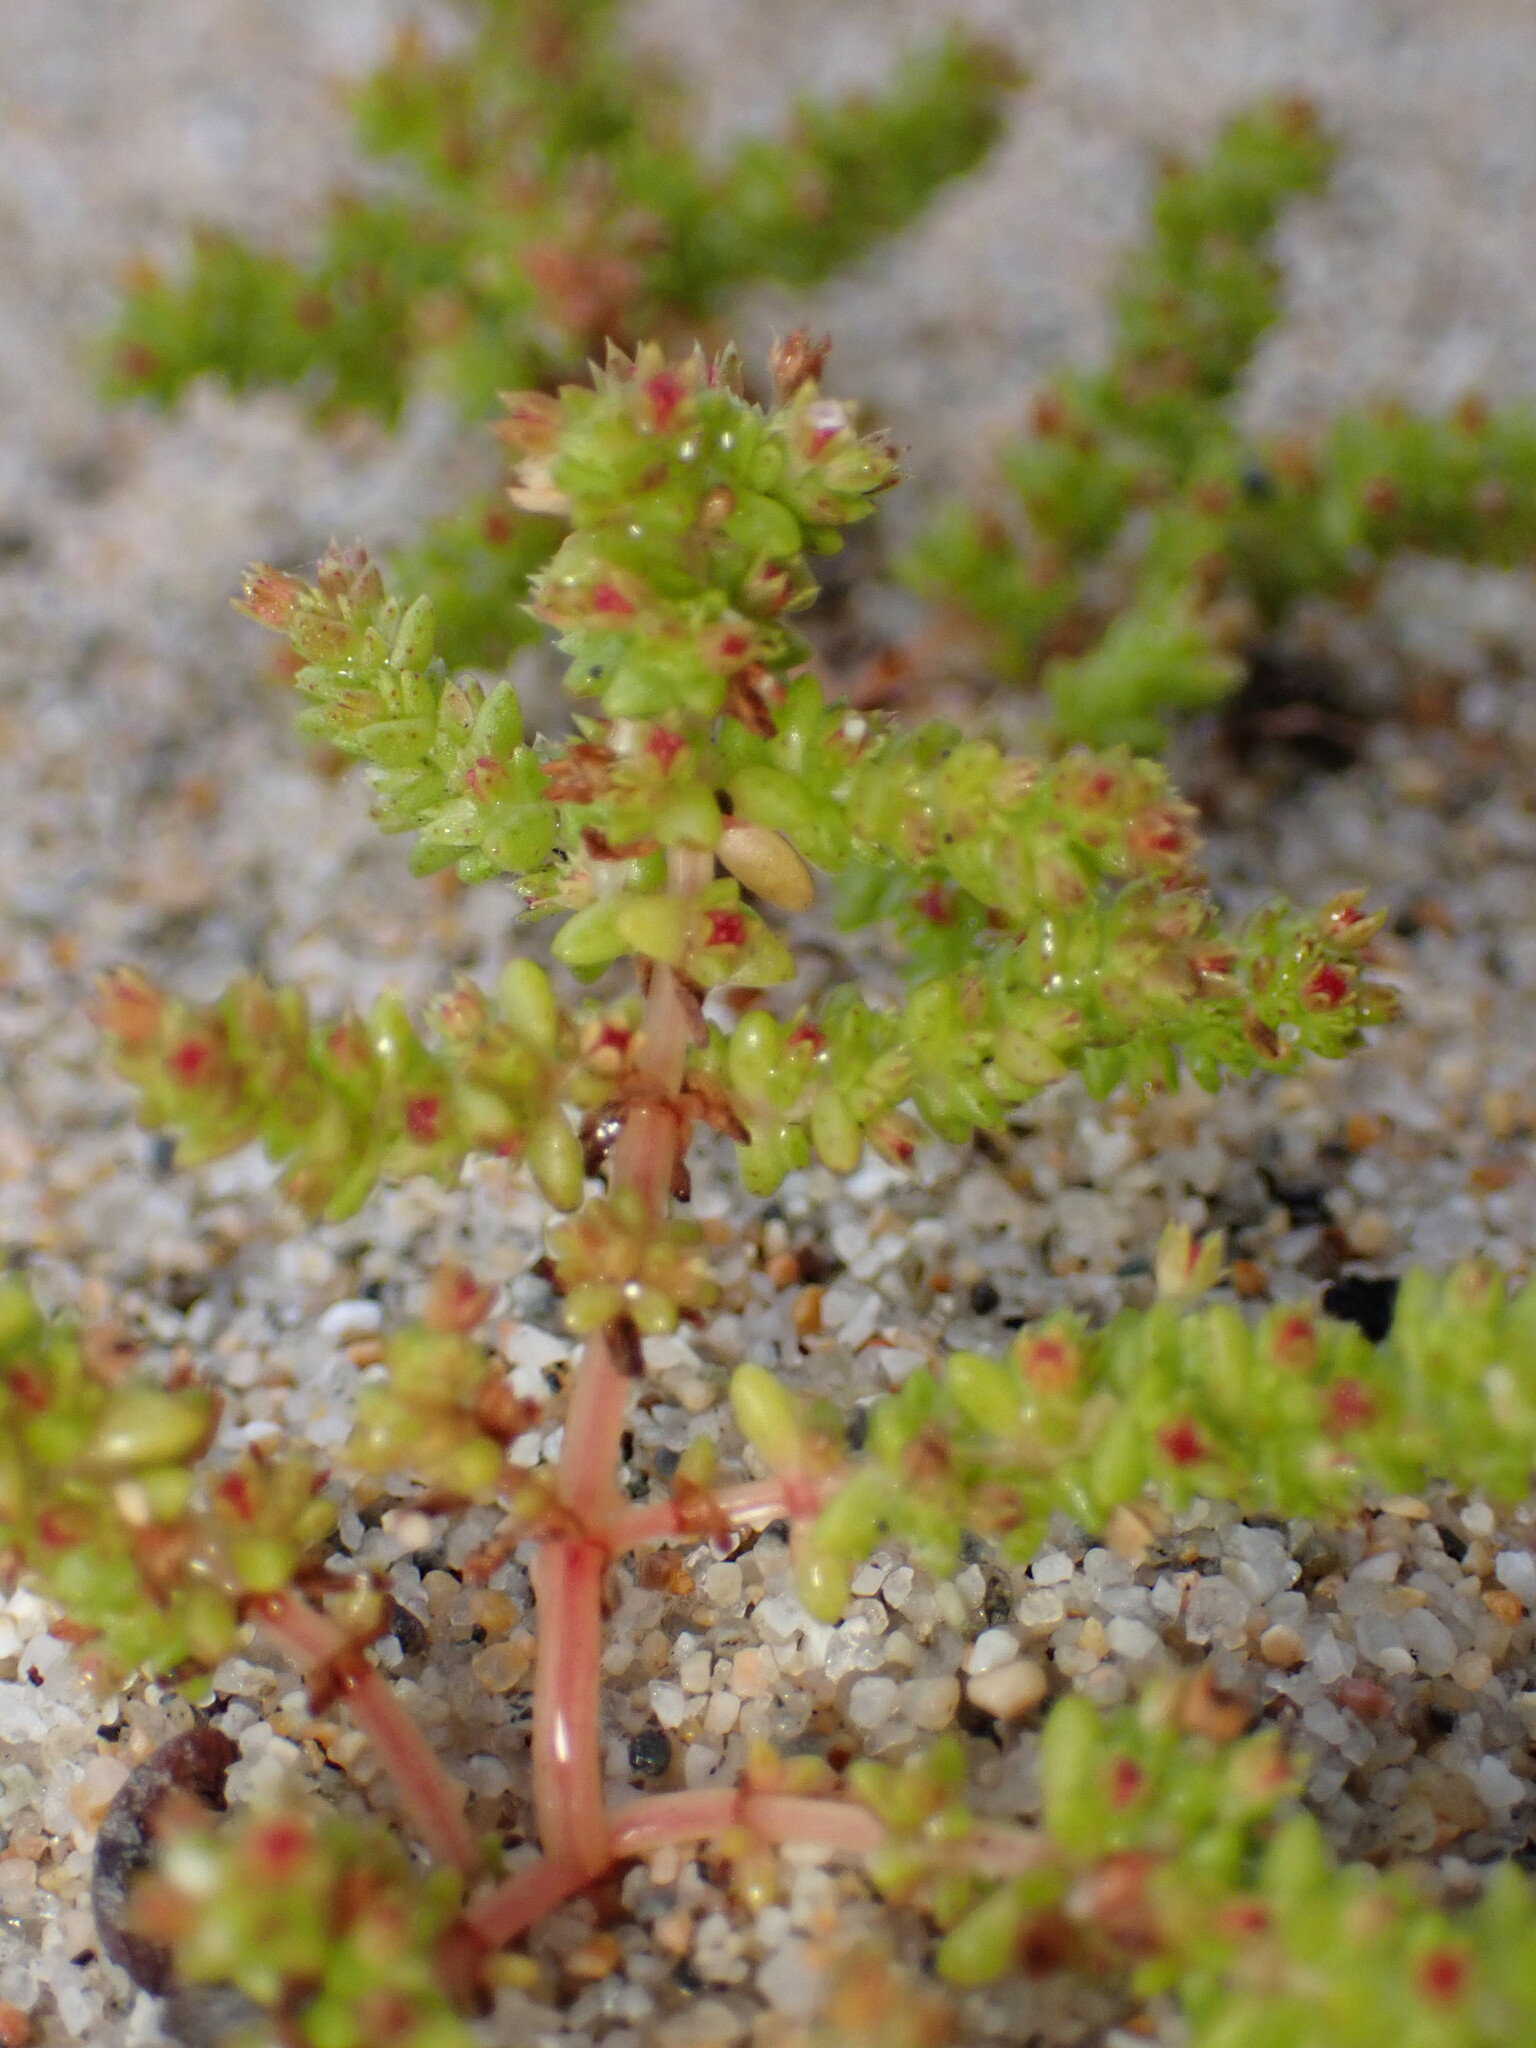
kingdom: Plantae
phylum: Tracheophyta
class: Magnoliopsida
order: Saxifragales
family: Crassulaceae
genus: Crassula
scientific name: Crassula connata
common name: Erect pygmyweed
